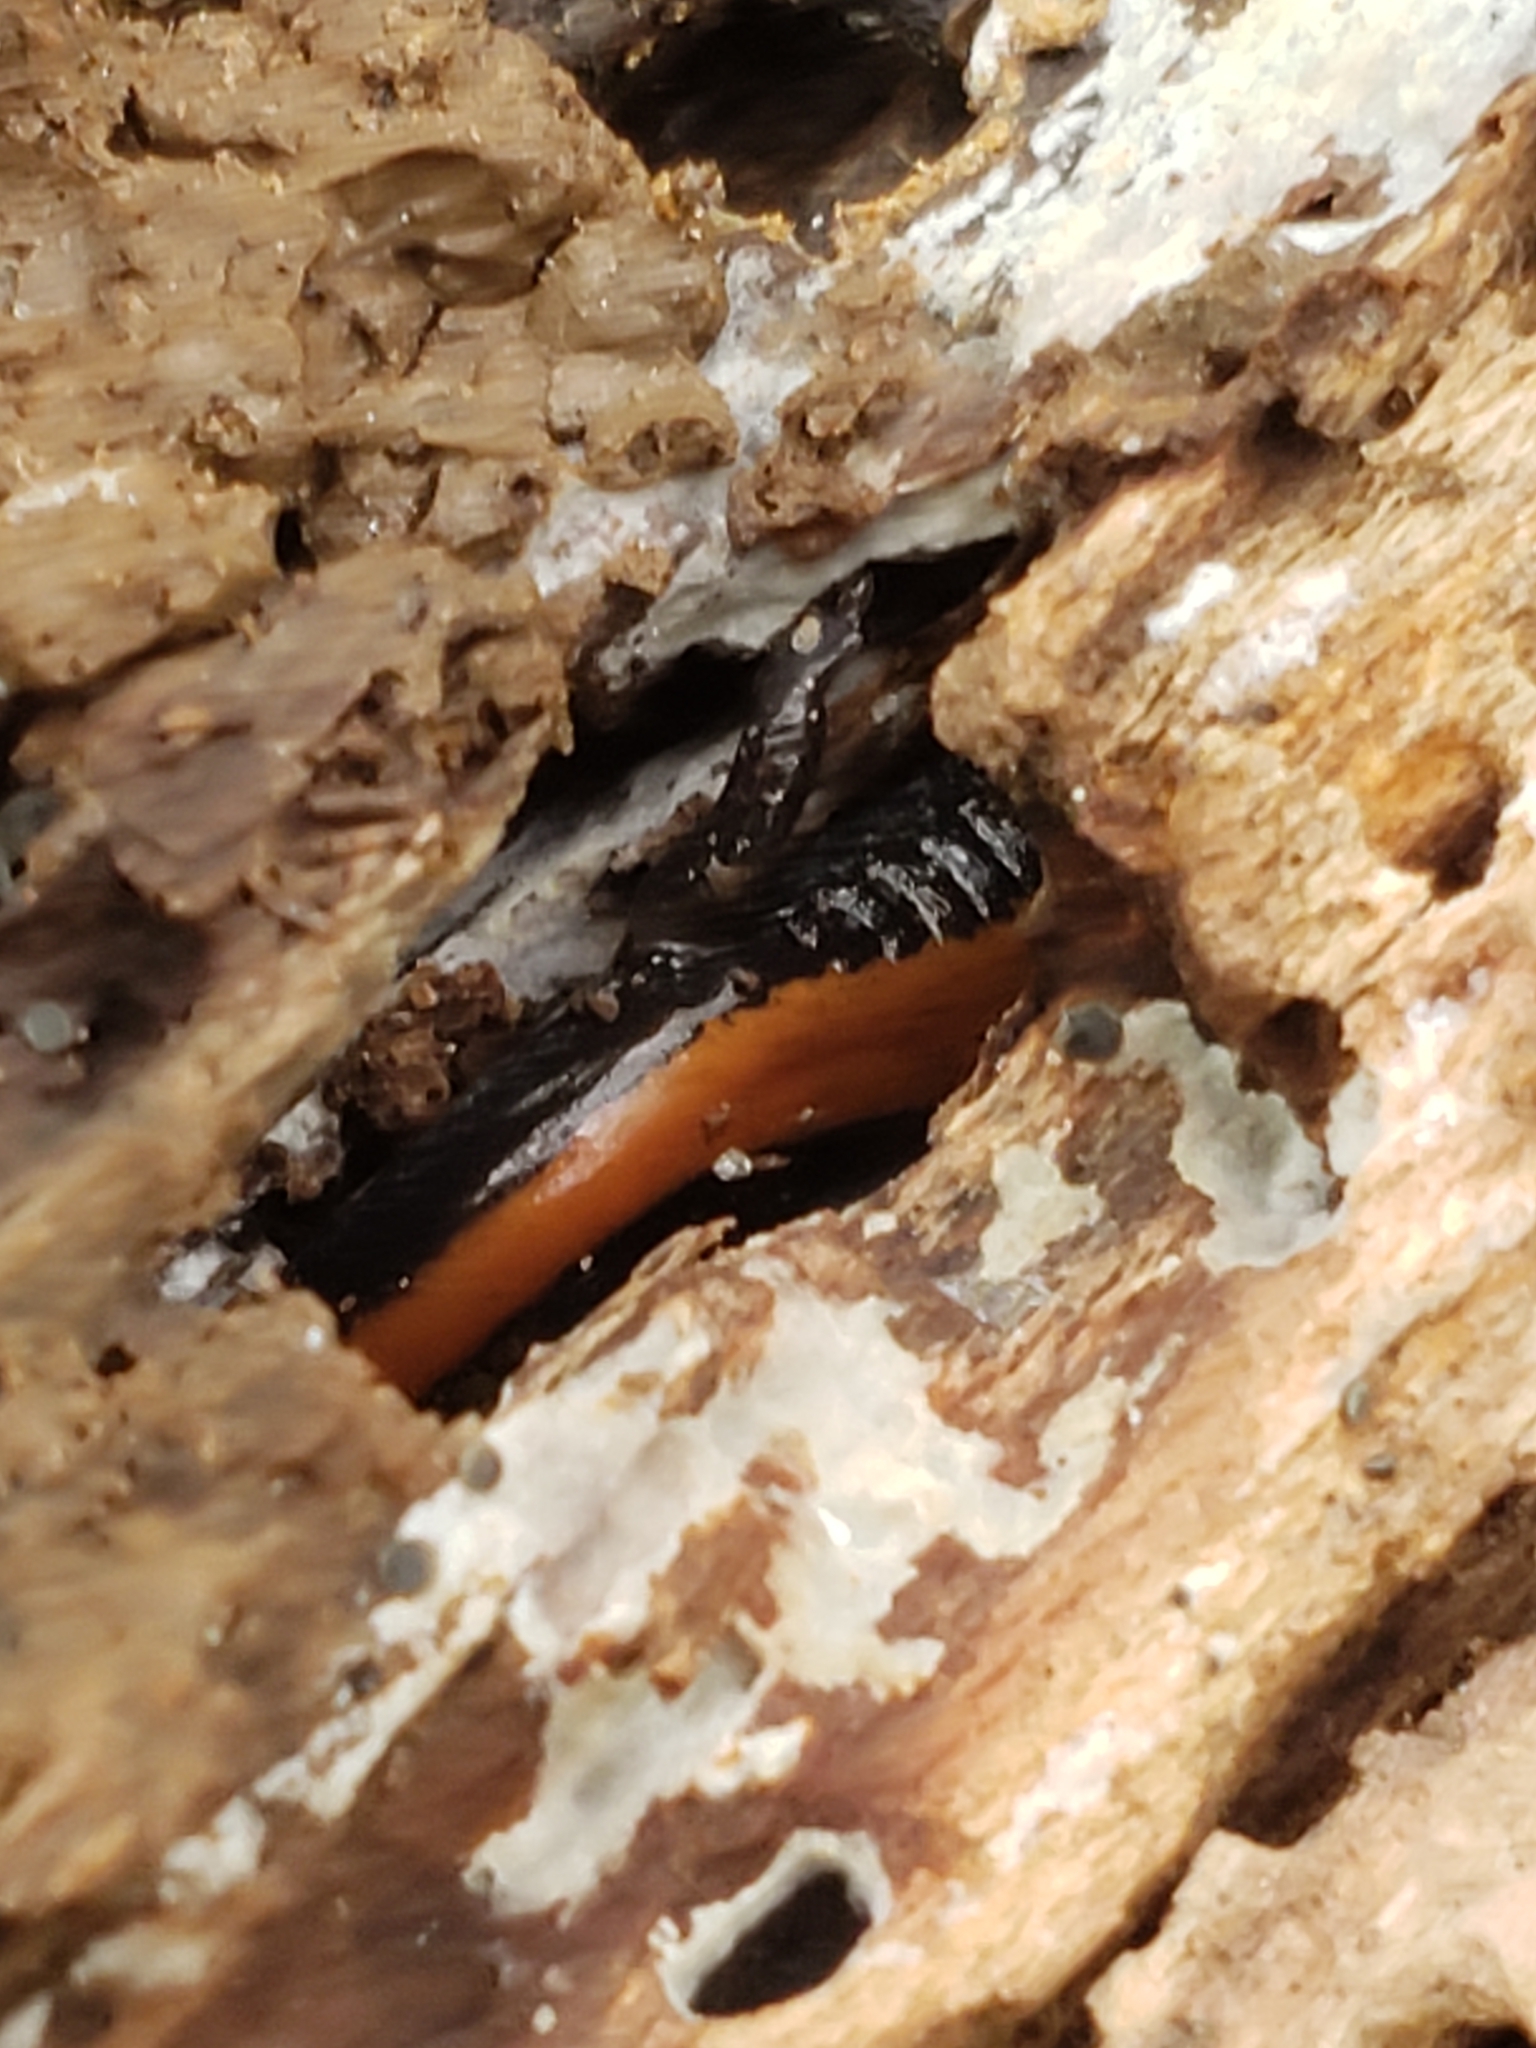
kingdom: Animalia
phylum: Chordata
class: Amphibia
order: Caudata
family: Plethodontidae
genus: Plethodon
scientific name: Plethodon cinereus
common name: Redback salamander
